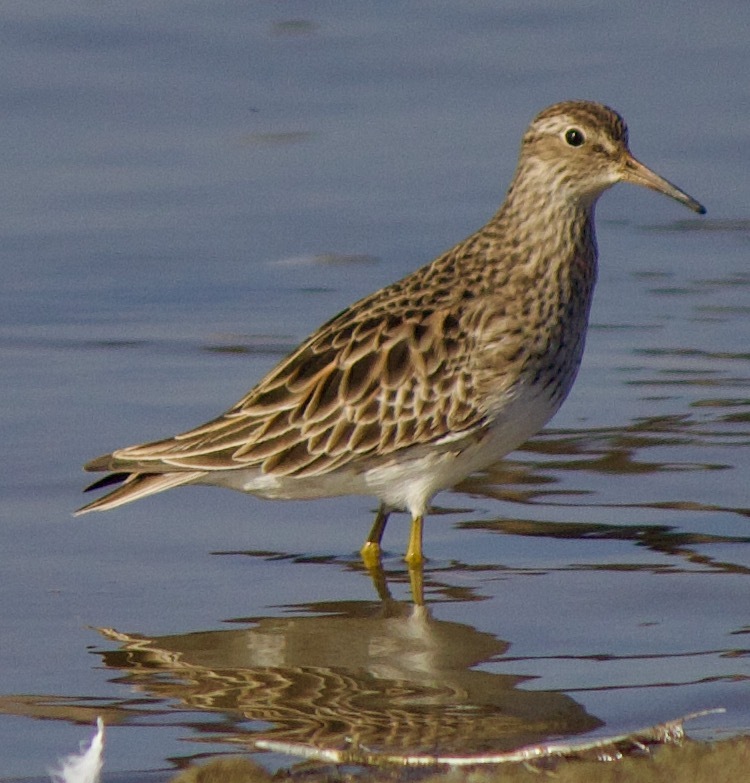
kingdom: Animalia
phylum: Chordata
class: Aves
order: Charadriiformes
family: Scolopacidae
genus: Calidris
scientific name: Calidris melanotos
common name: Pectoral sandpiper
